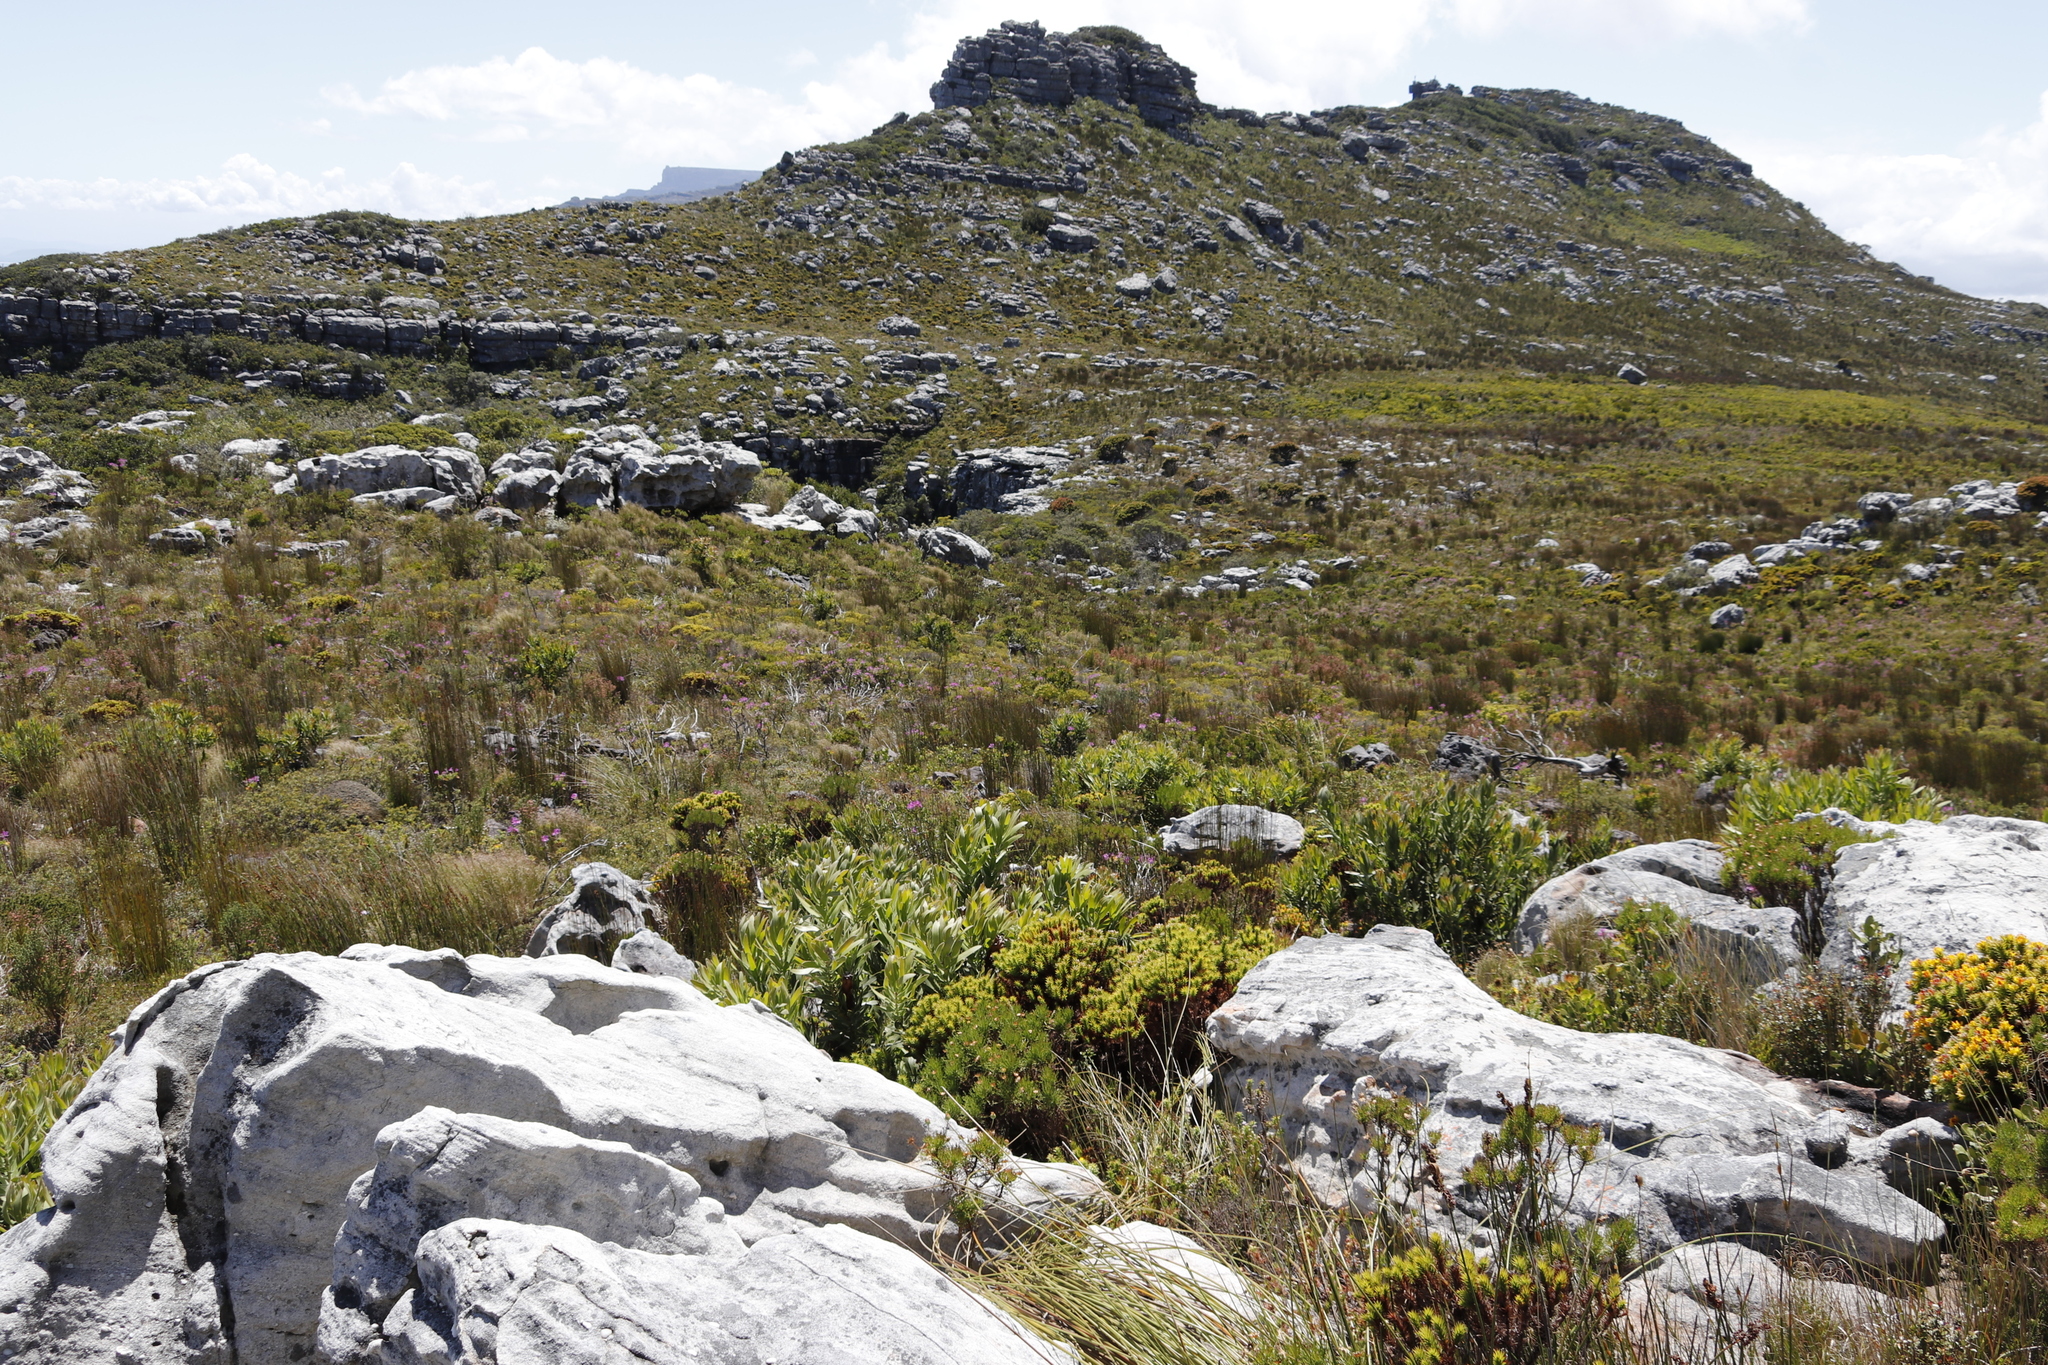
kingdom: Plantae
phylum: Tracheophyta
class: Magnoliopsida
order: Proteales
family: Proteaceae
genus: Protea
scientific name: Protea lepidocarpodendron
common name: Black-bearded protea
